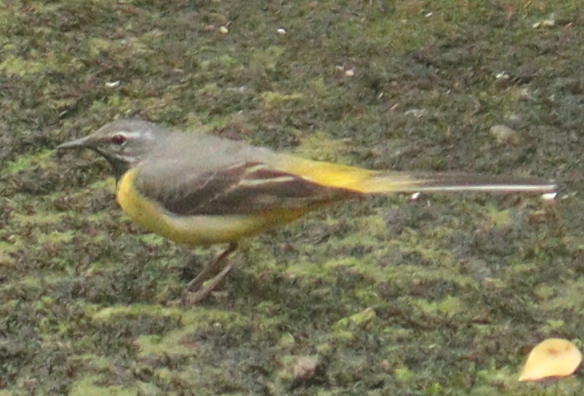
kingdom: Animalia
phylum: Chordata
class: Aves
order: Passeriformes
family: Motacillidae
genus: Motacilla
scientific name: Motacilla cinerea
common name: Grey wagtail
